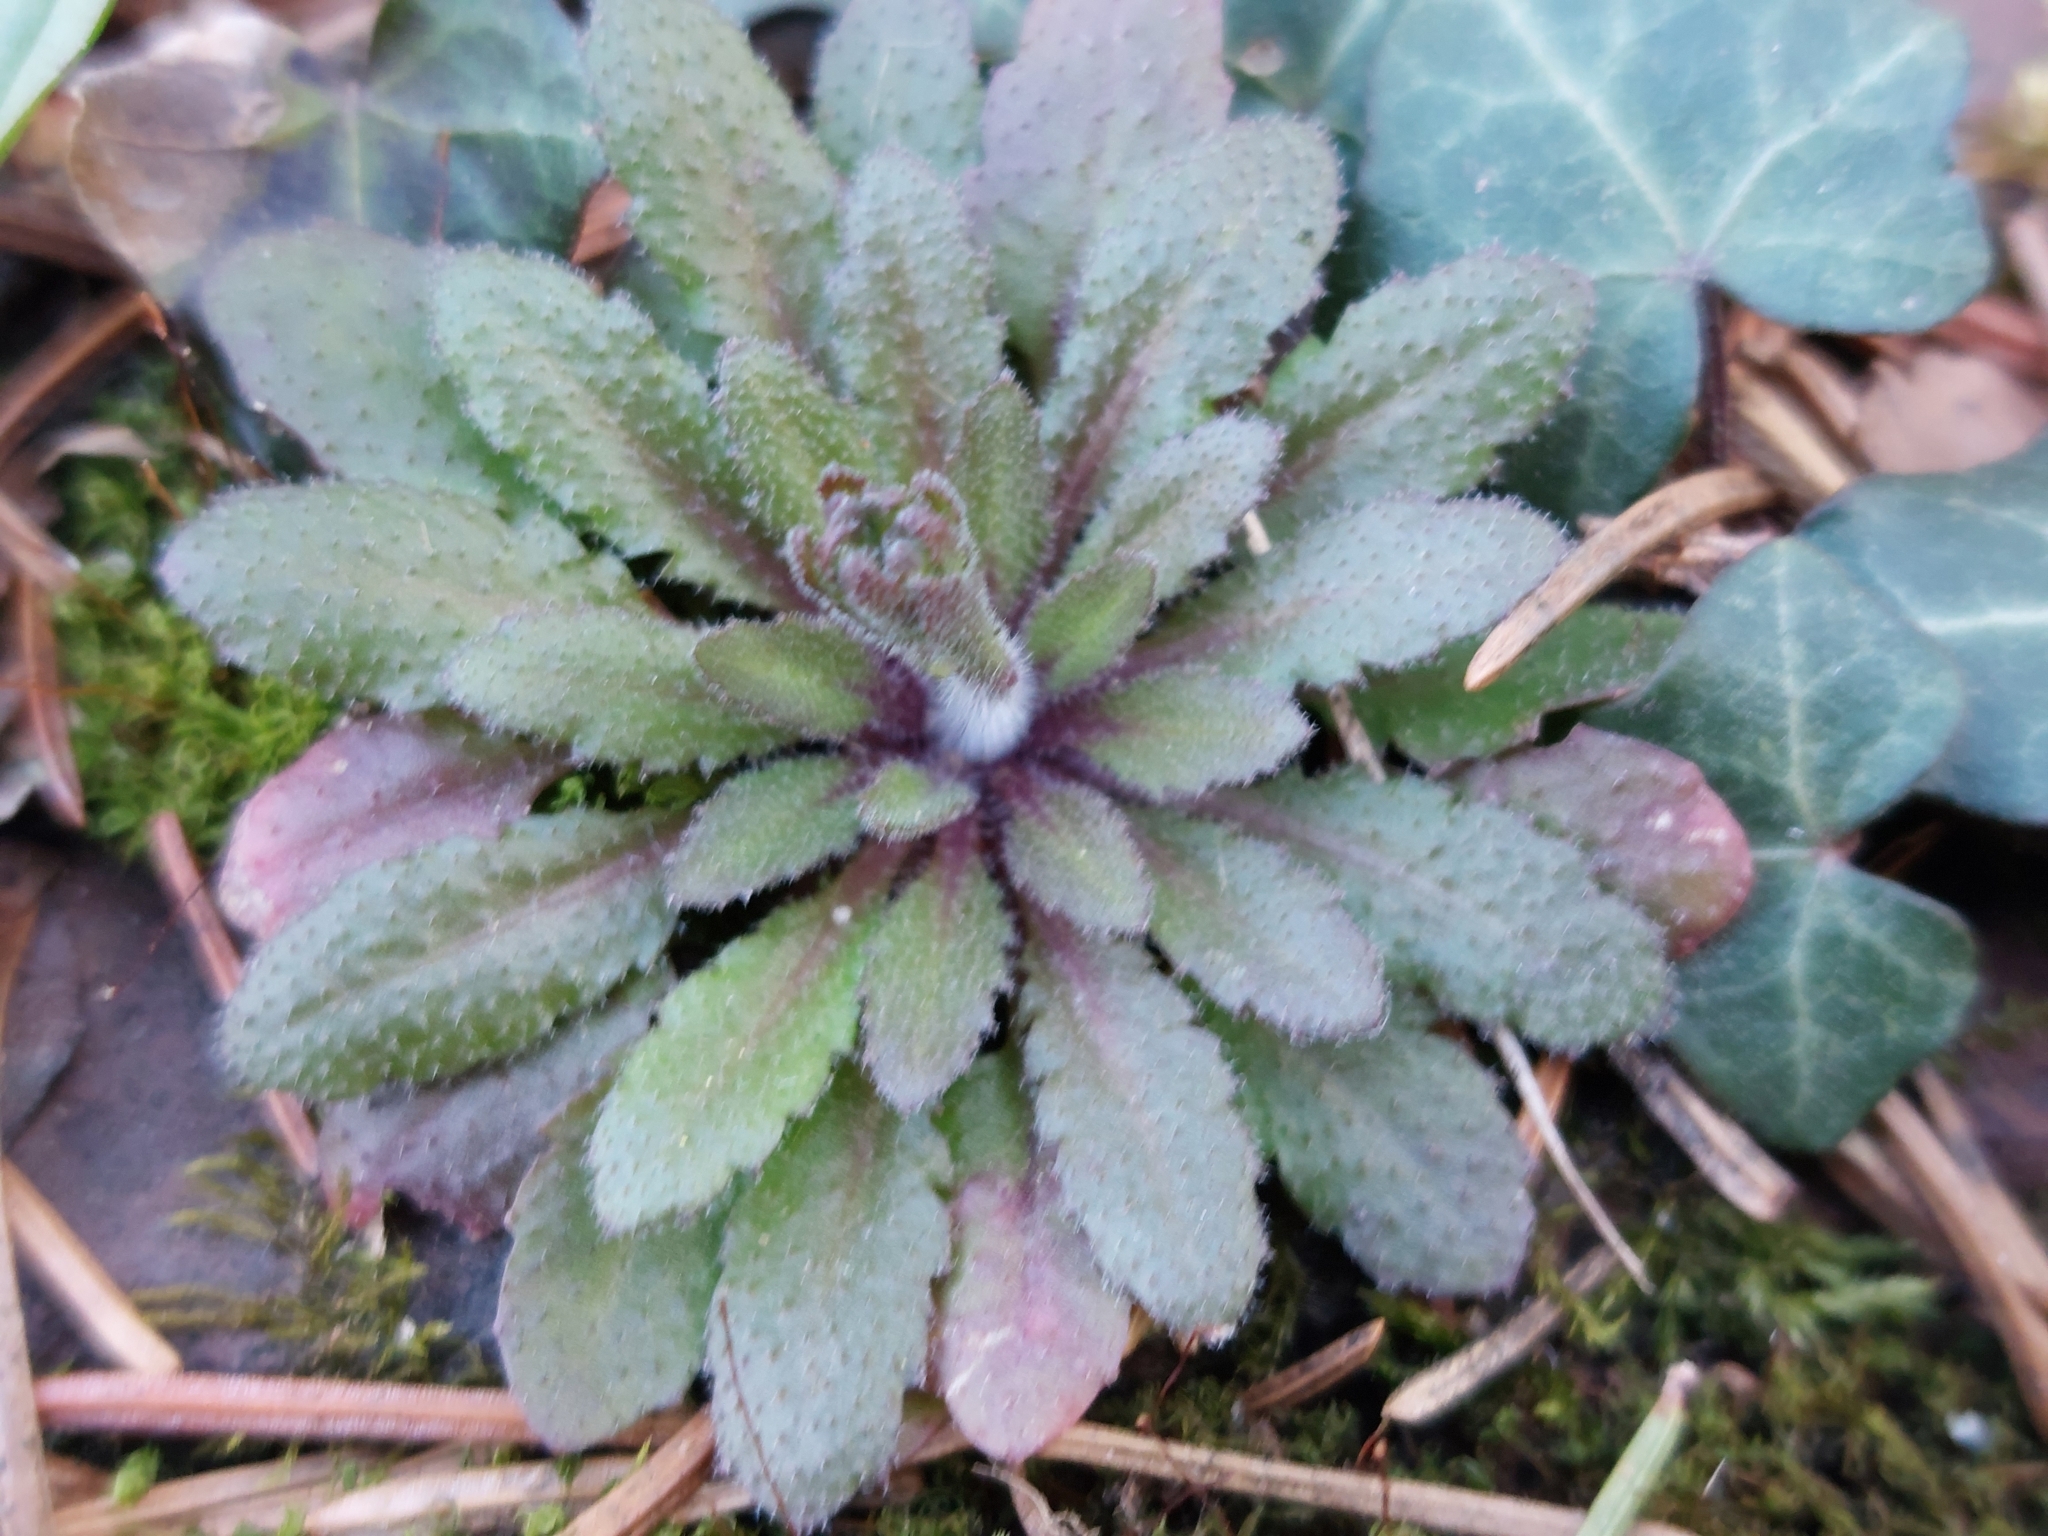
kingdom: Plantae
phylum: Tracheophyta
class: Magnoliopsida
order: Brassicales
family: Brassicaceae
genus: Arabidopsis
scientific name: Arabidopsis thaliana
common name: Thale cress
